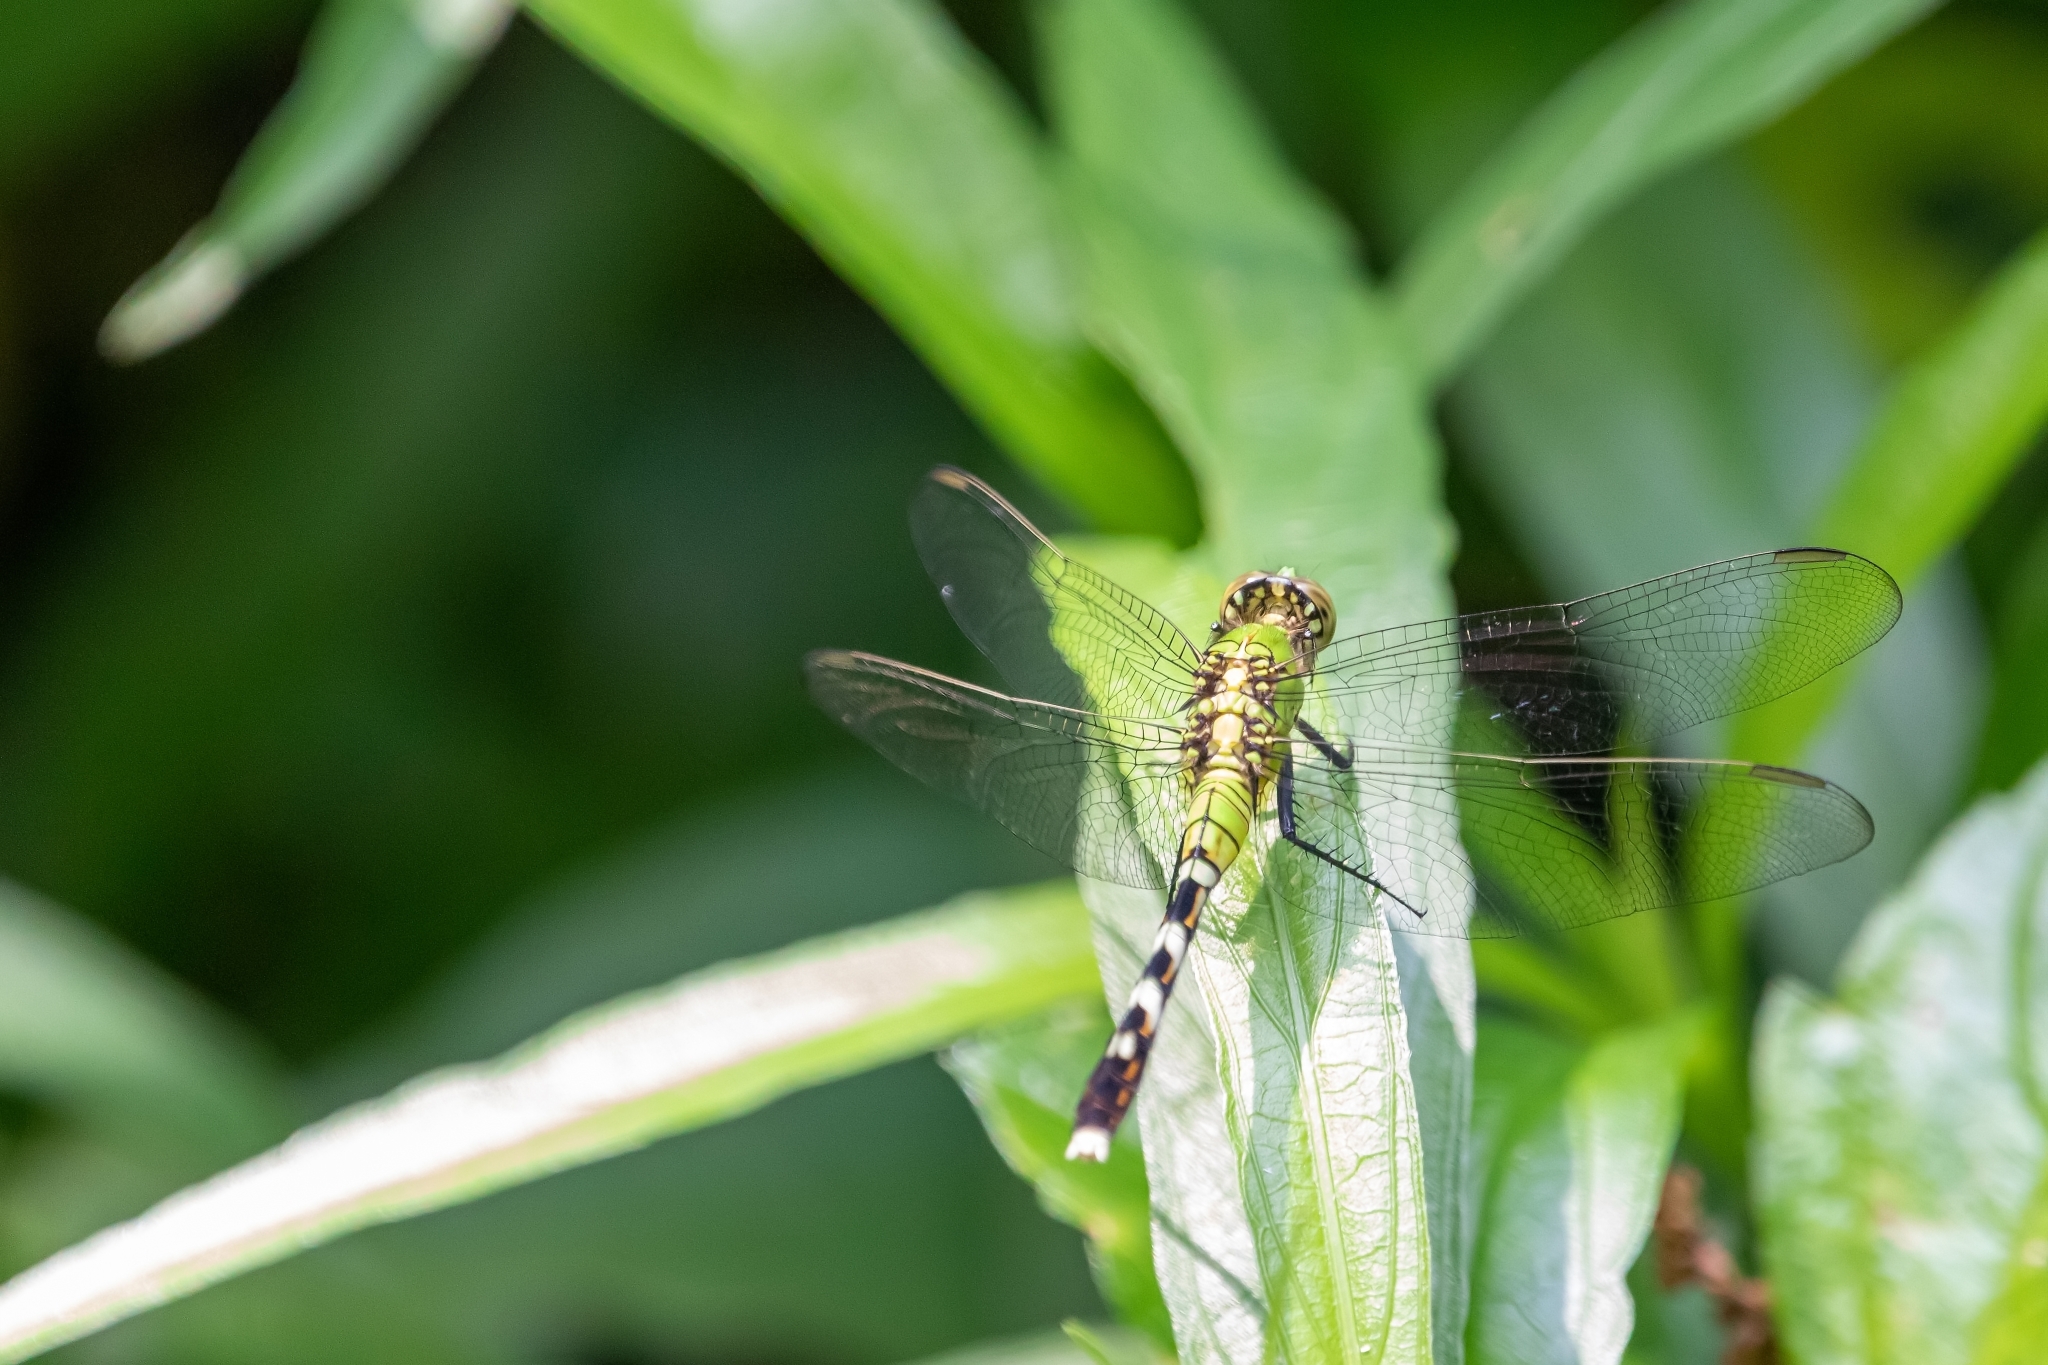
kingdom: Animalia
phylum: Arthropoda
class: Insecta
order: Odonata
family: Libellulidae
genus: Erythemis
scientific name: Erythemis simplicicollis
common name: Eastern pondhawk
